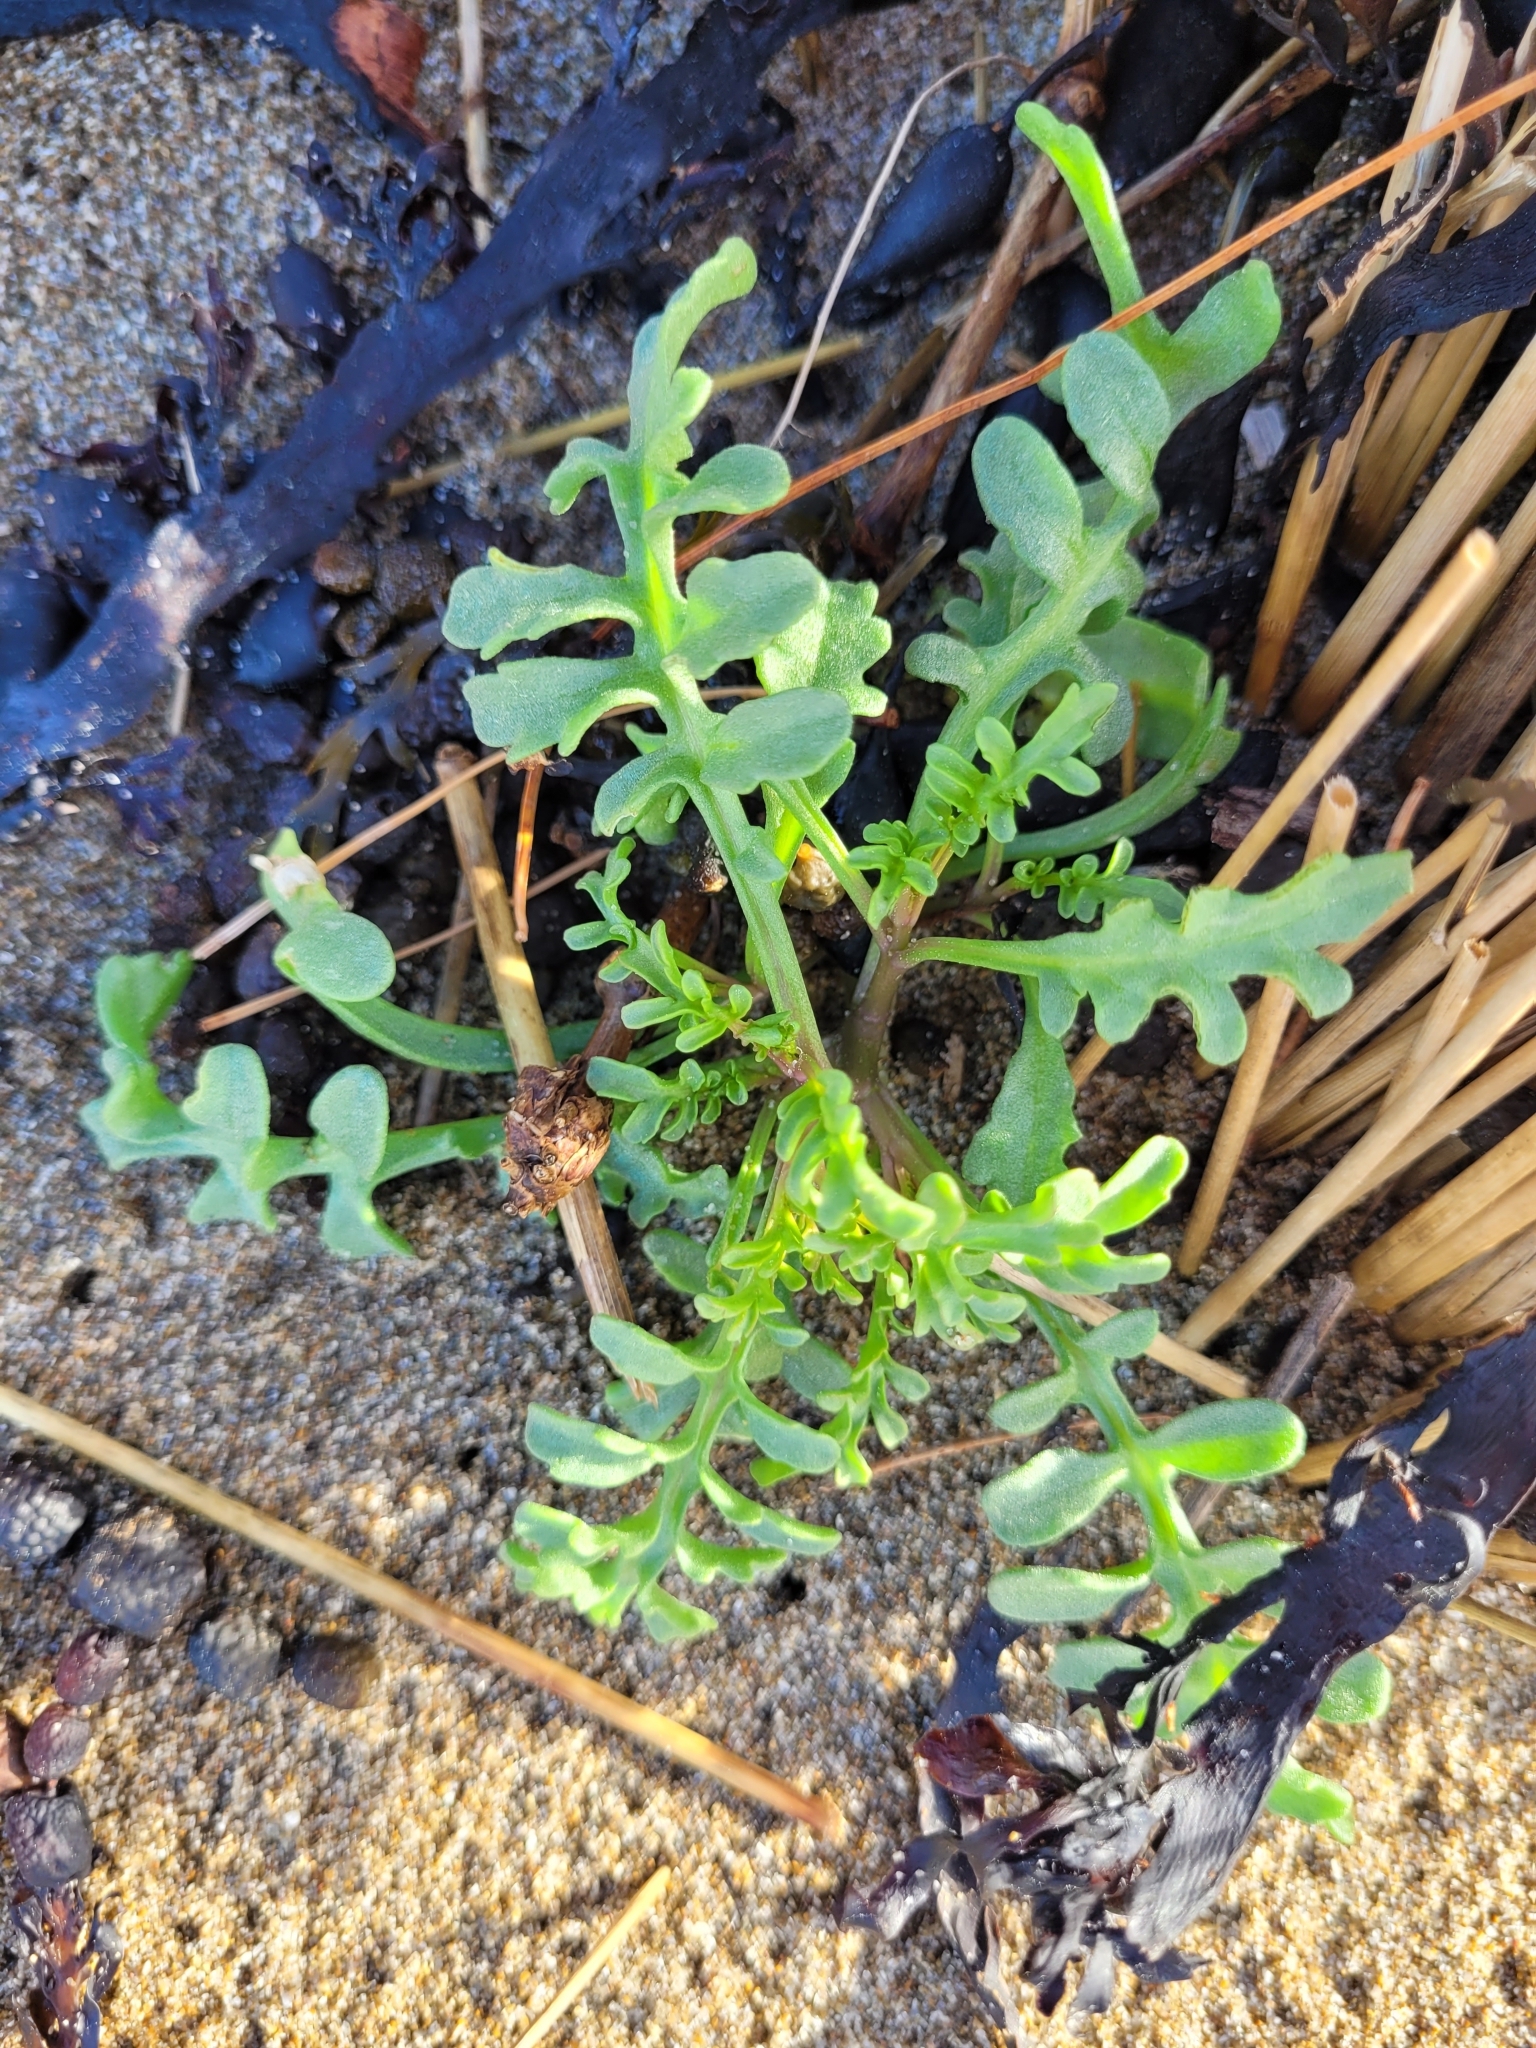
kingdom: Plantae
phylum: Tracheophyta
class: Magnoliopsida
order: Brassicales
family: Brassicaceae
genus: Cakile
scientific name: Cakile maritima
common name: Sea rocket
